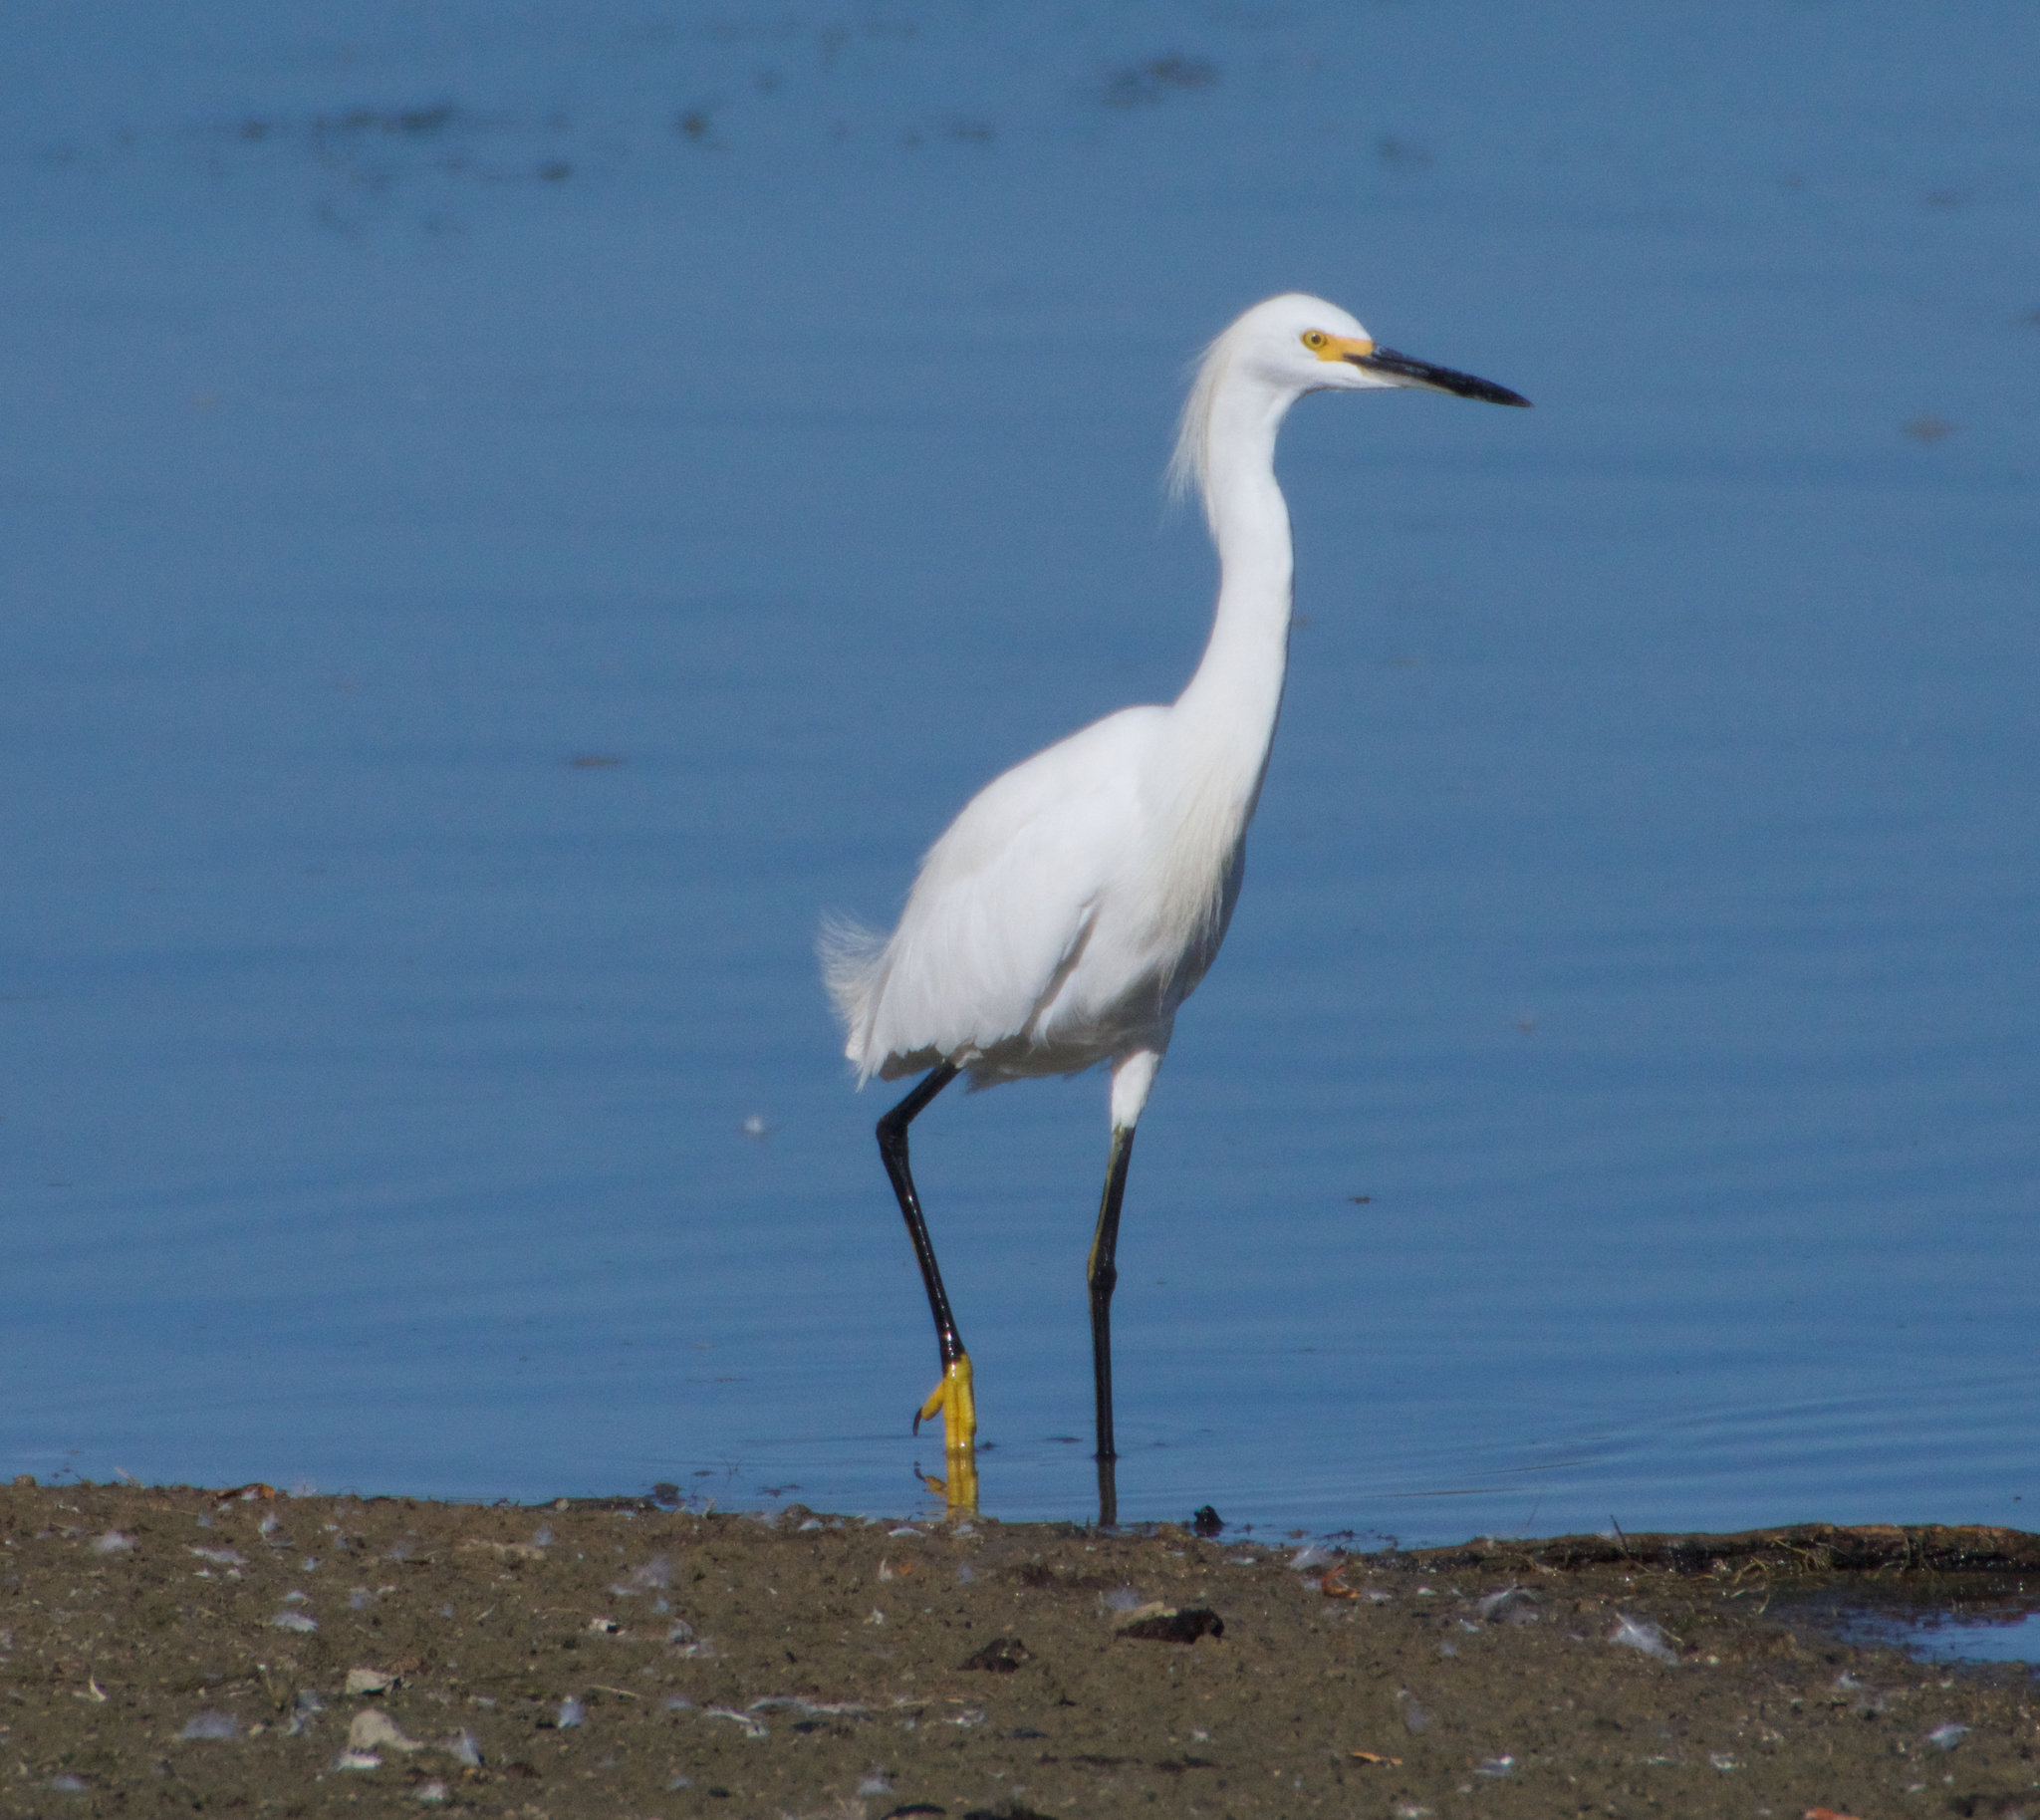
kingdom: Animalia
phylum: Chordata
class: Aves
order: Pelecaniformes
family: Ardeidae
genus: Egretta
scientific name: Egretta thula
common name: Snowy egret
